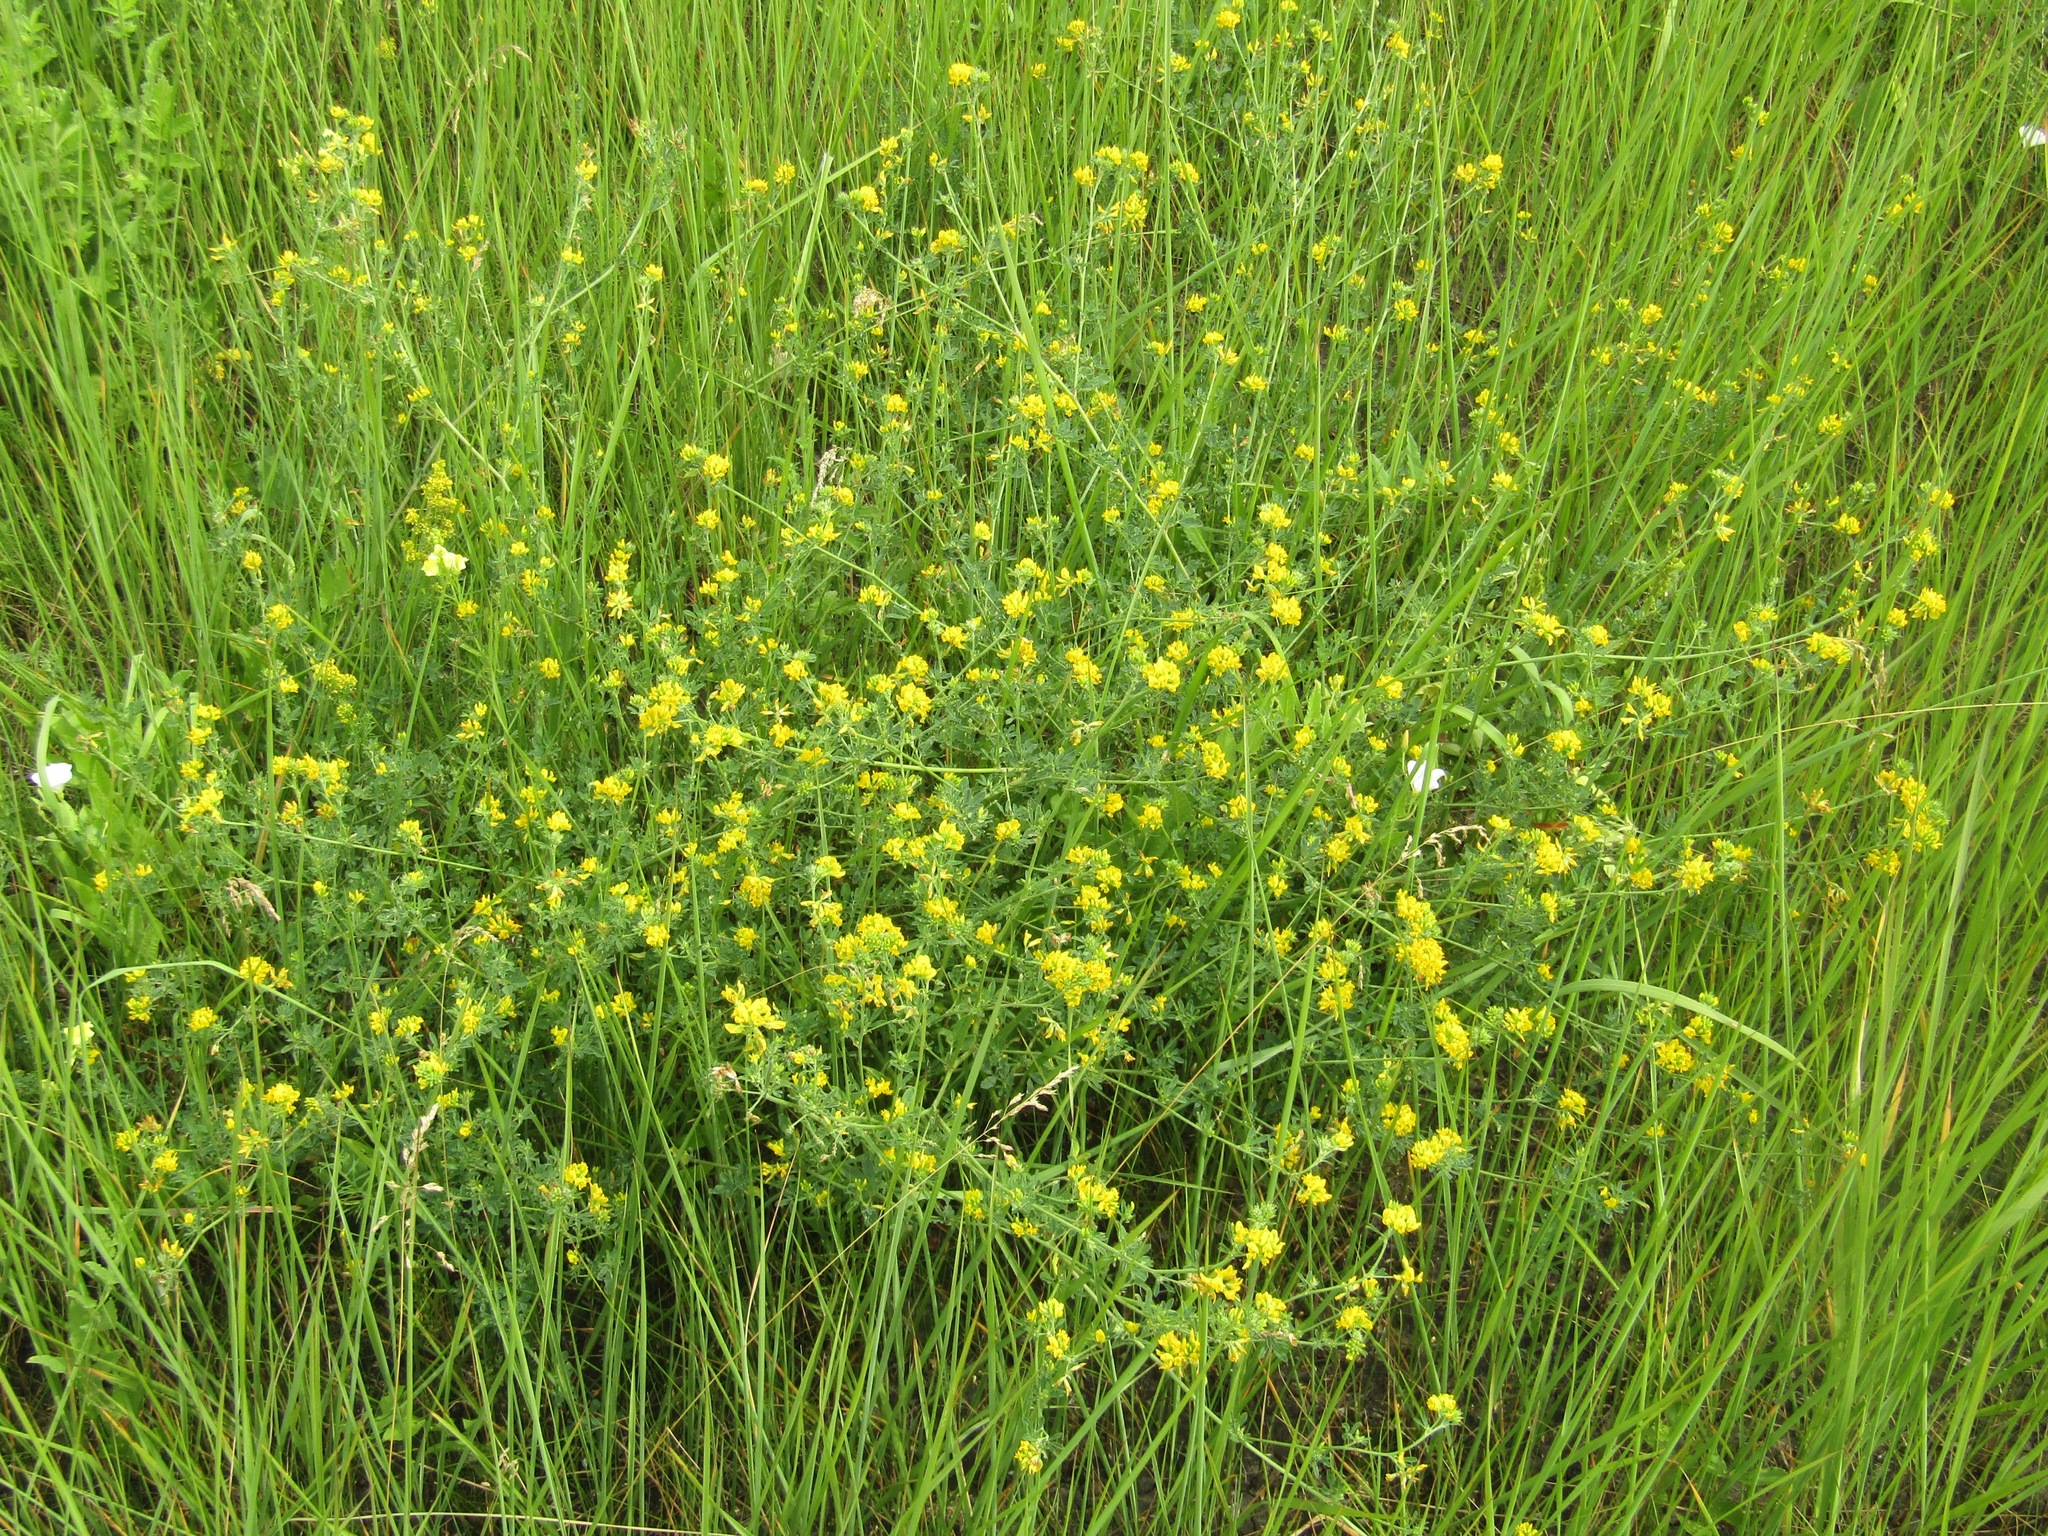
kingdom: Plantae
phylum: Tracheophyta
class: Magnoliopsida
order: Fabales
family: Fabaceae
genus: Medicago
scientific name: Medicago falcata
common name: Sickle medick
